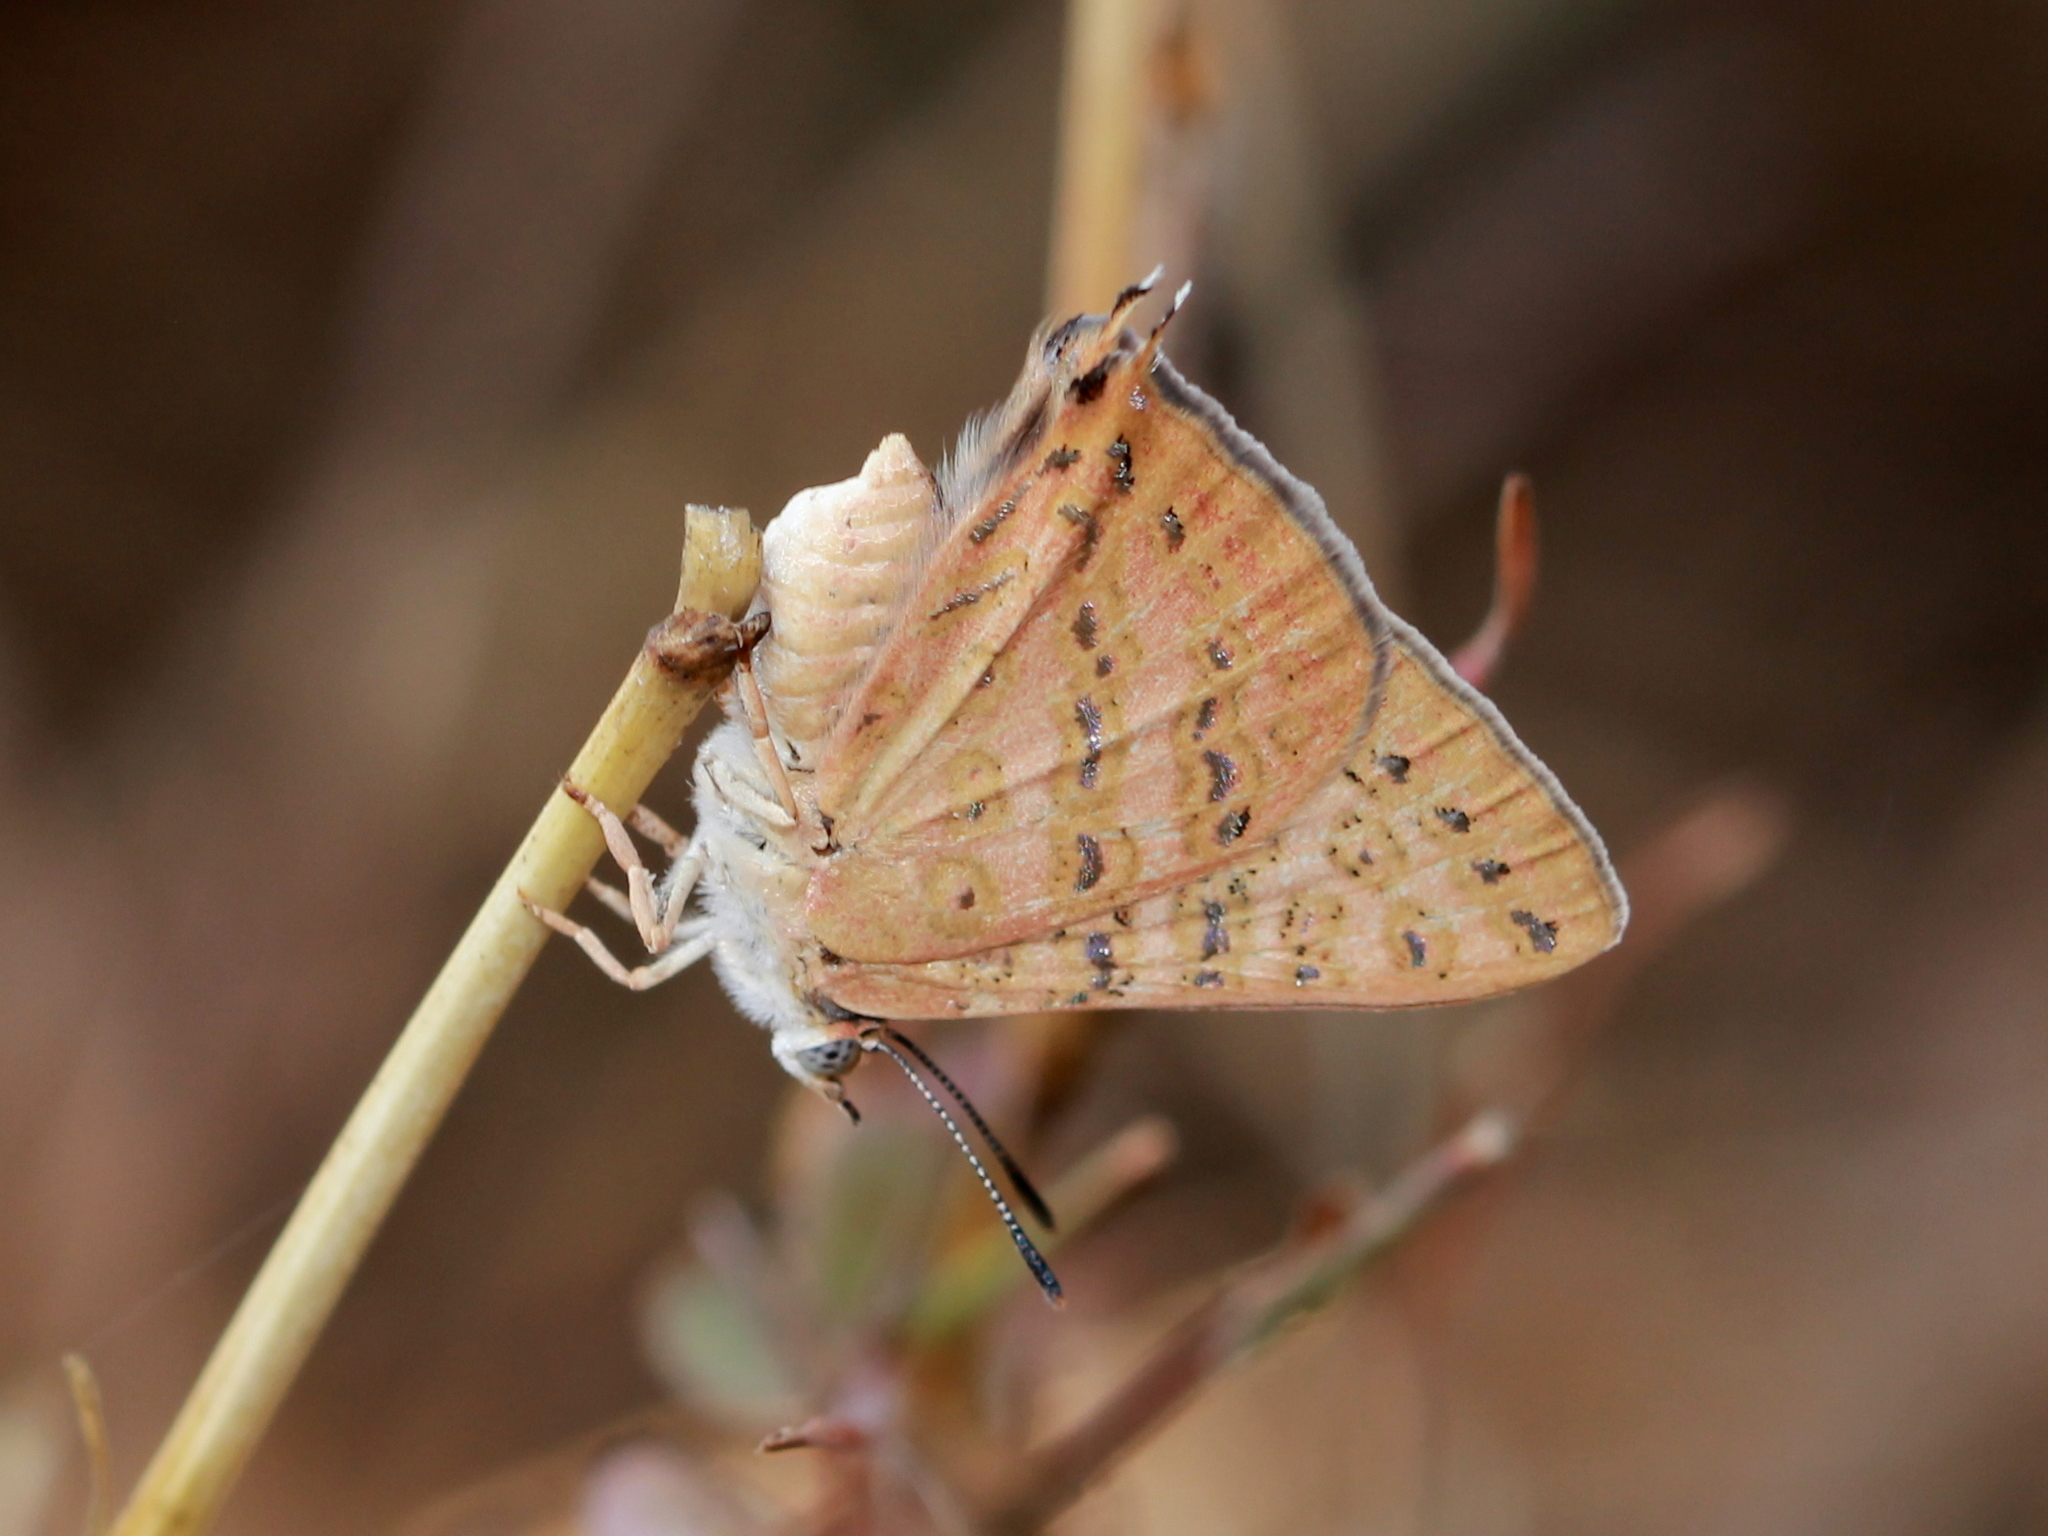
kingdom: Animalia
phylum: Arthropoda
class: Insecta
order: Lepidoptera
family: Lycaenidae
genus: Aphnaeus
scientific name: Aphnaeus lilacinus
